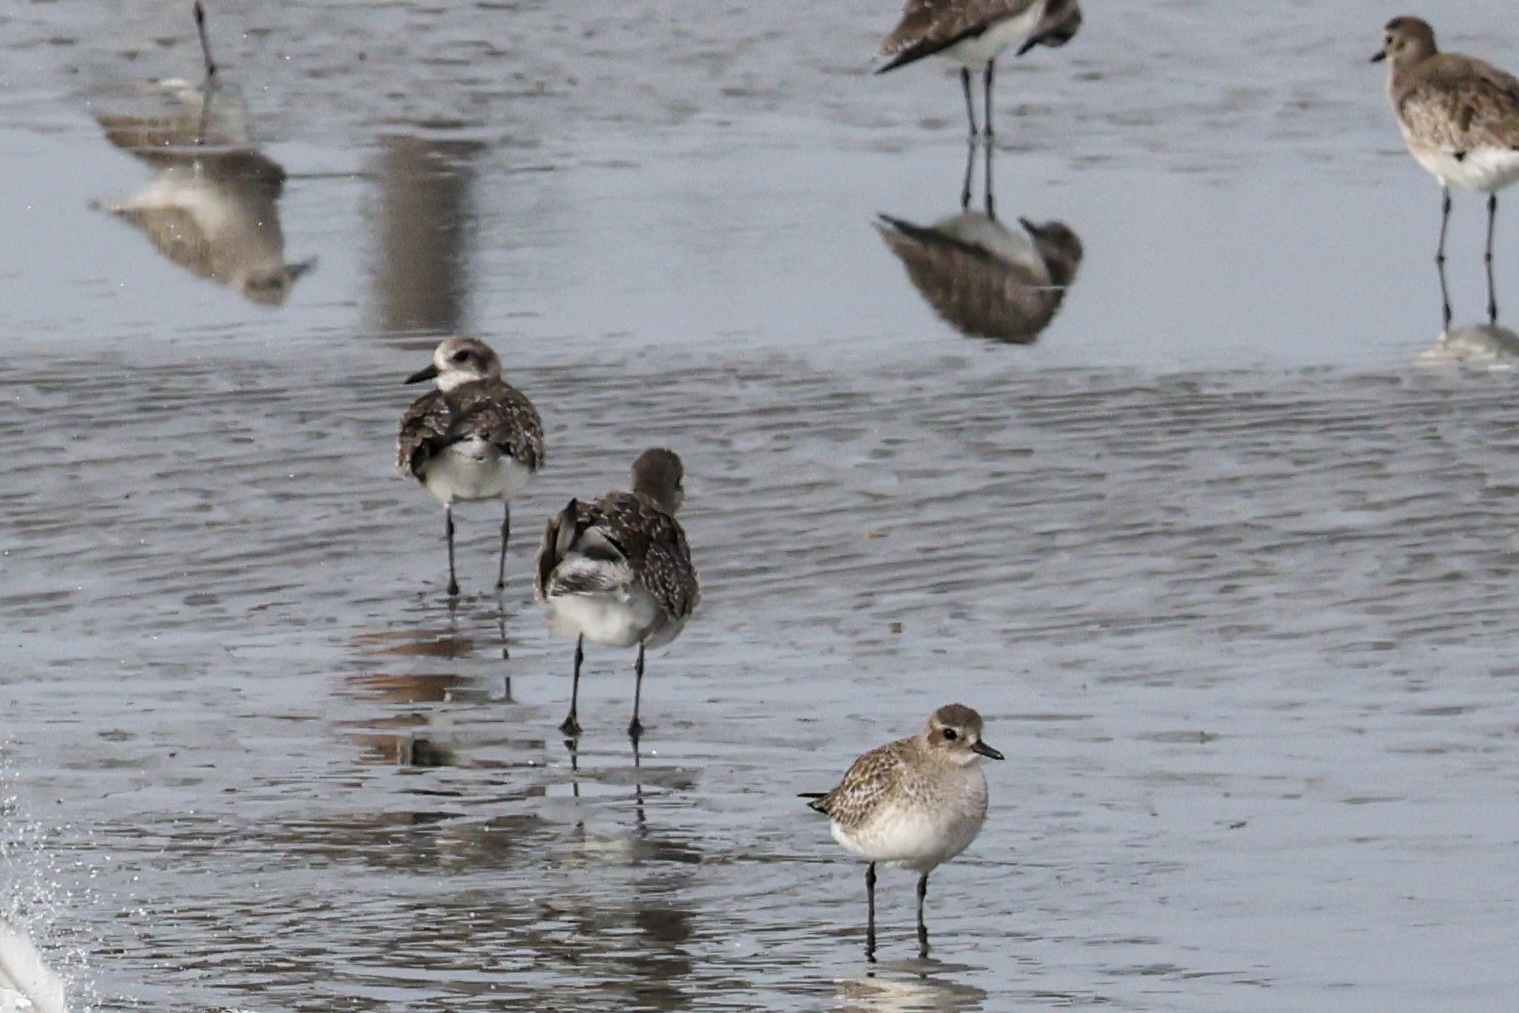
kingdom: Animalia
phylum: Chordata
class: Aves
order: Charadriiformes
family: Charadriidae
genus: Pluvialis
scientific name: Pluvialis squatarola
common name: Grey plover
